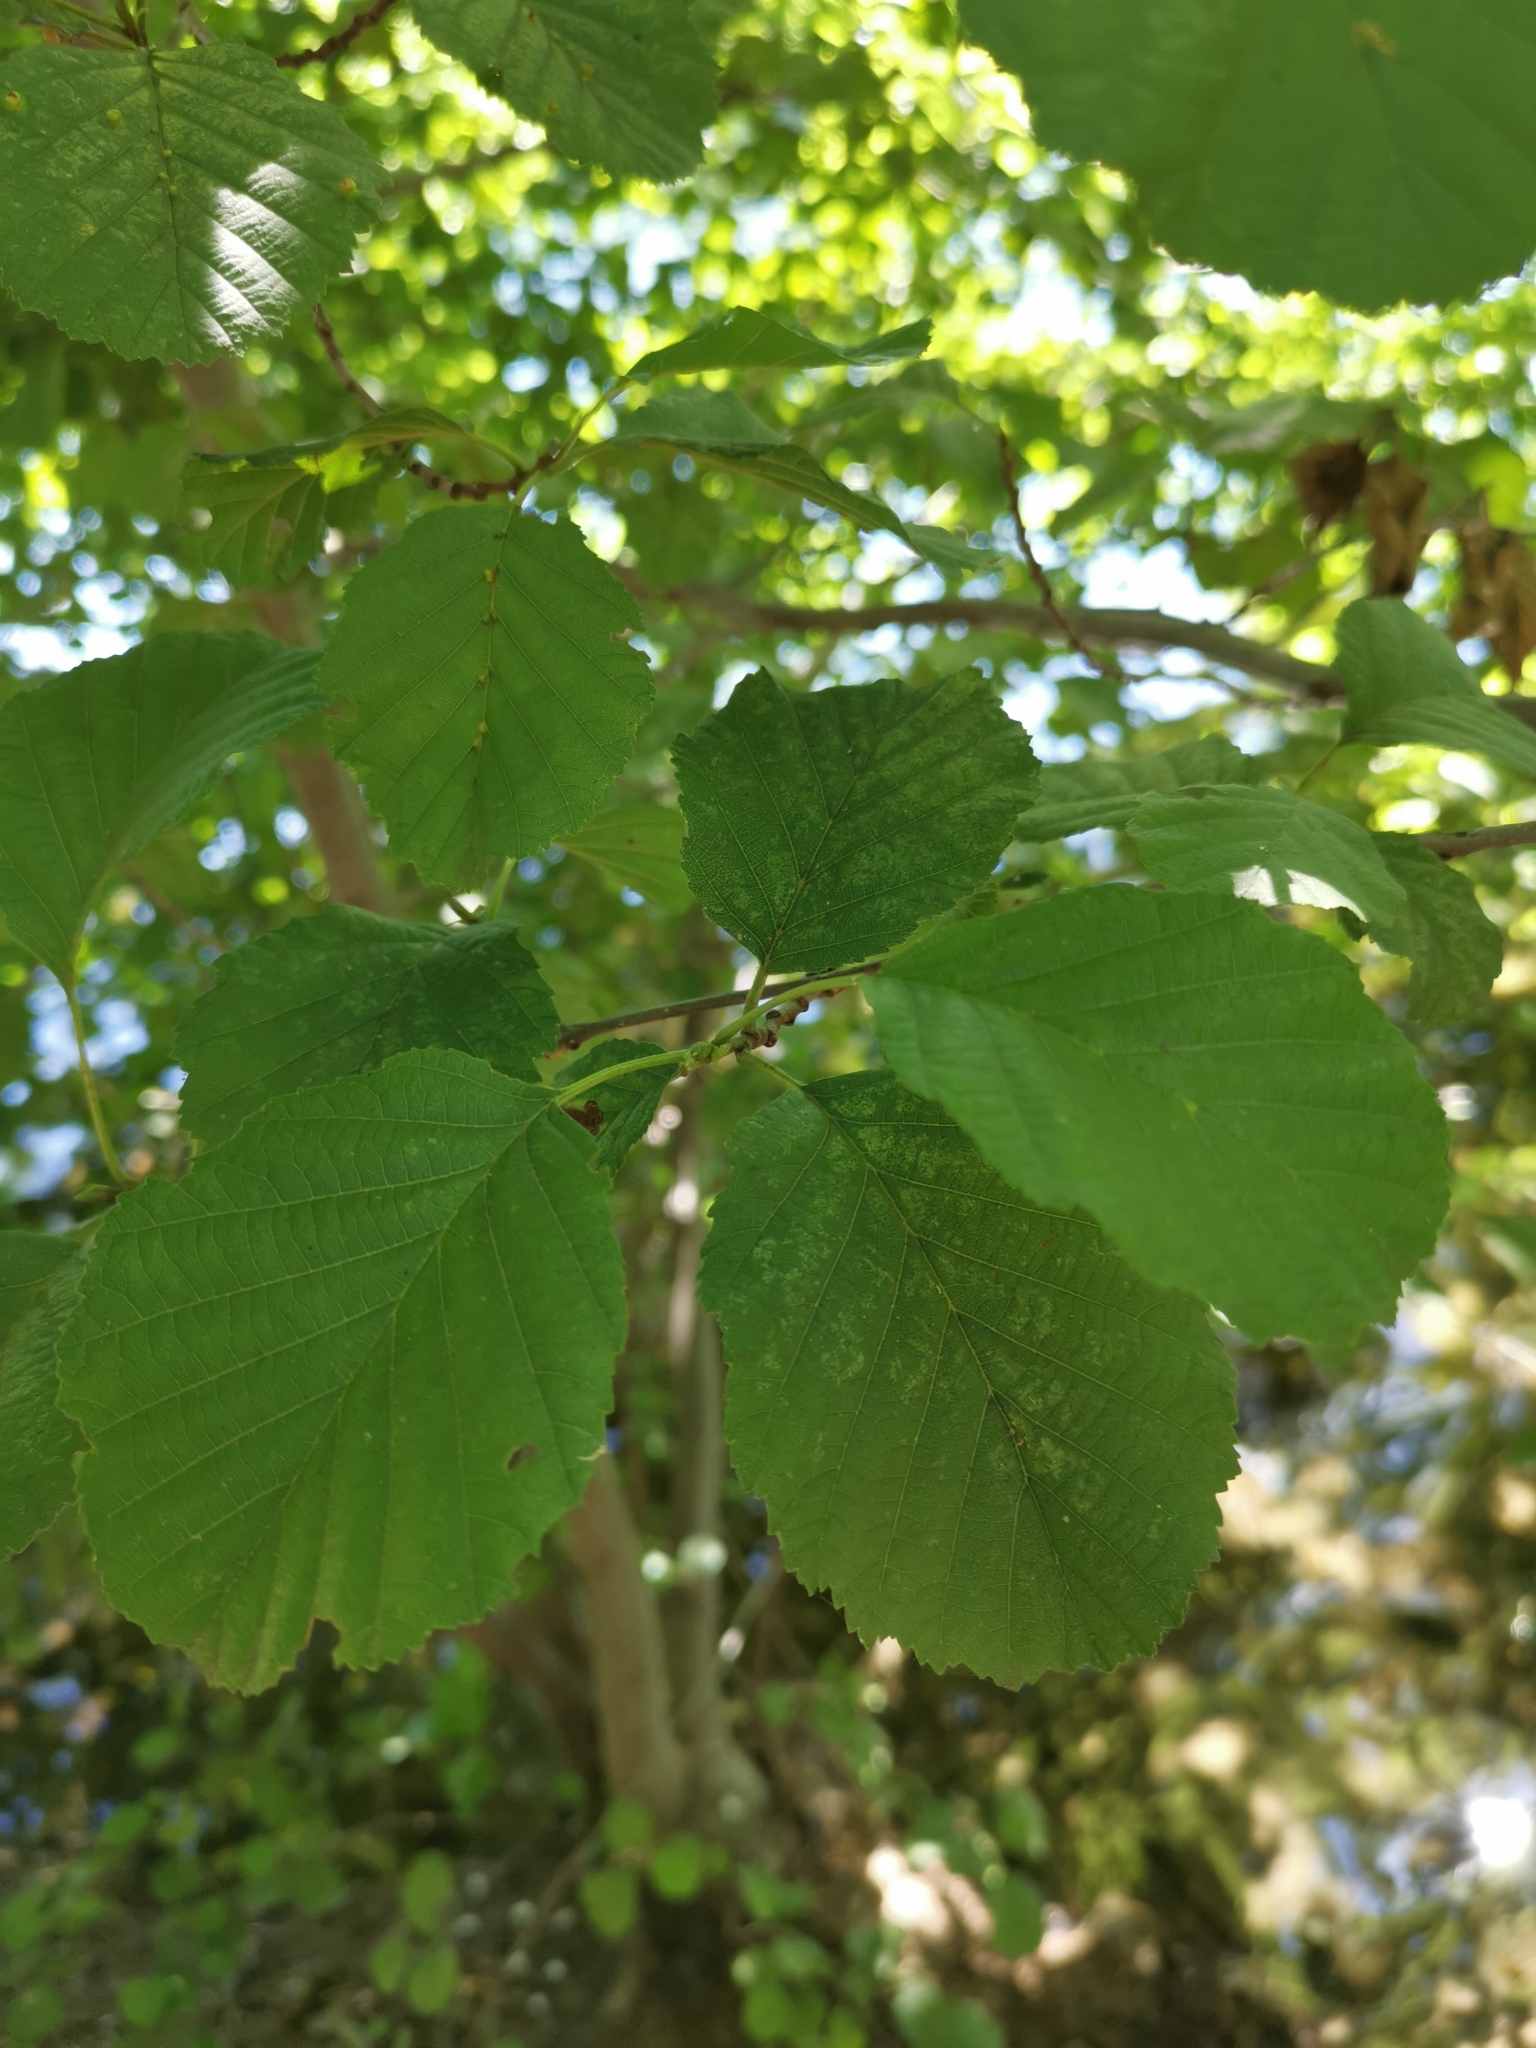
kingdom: Plantae
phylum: Tracheophyta
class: Magnoliopsida
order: Fagales
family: Betulaceae
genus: Alnus
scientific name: Alnus glutinosa
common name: Black alder
